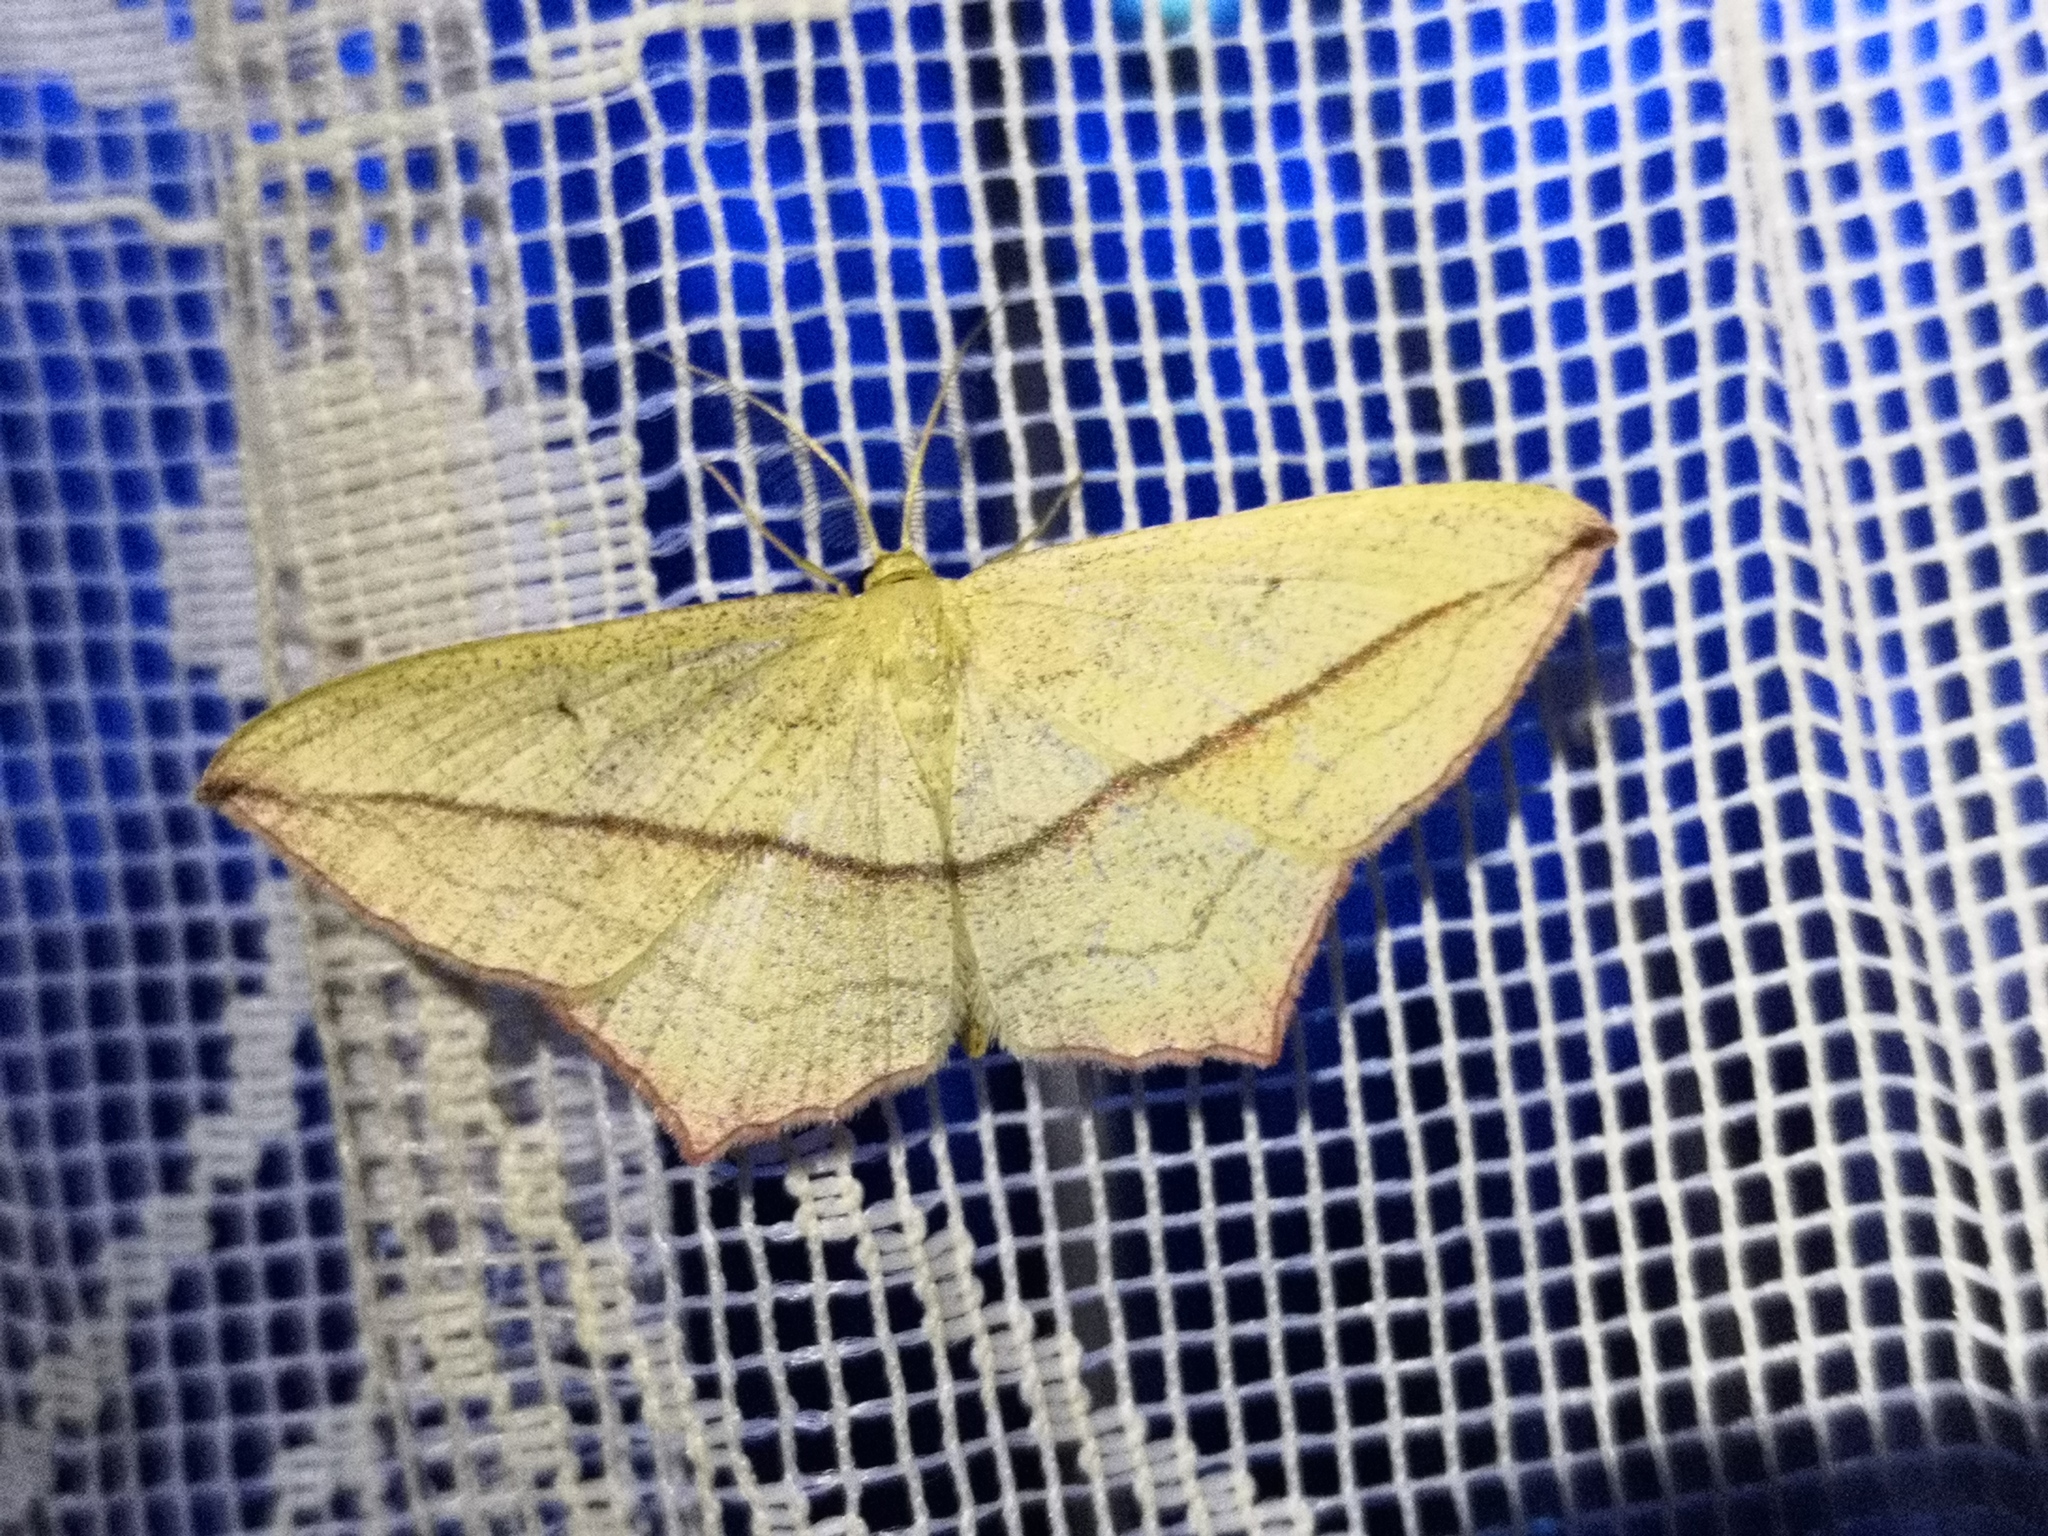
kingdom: Animalia
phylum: Arthropoda
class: Insecta
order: Lepidoptera
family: Geometridae
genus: Timandra
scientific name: Timandra comae
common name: Blood-vein
